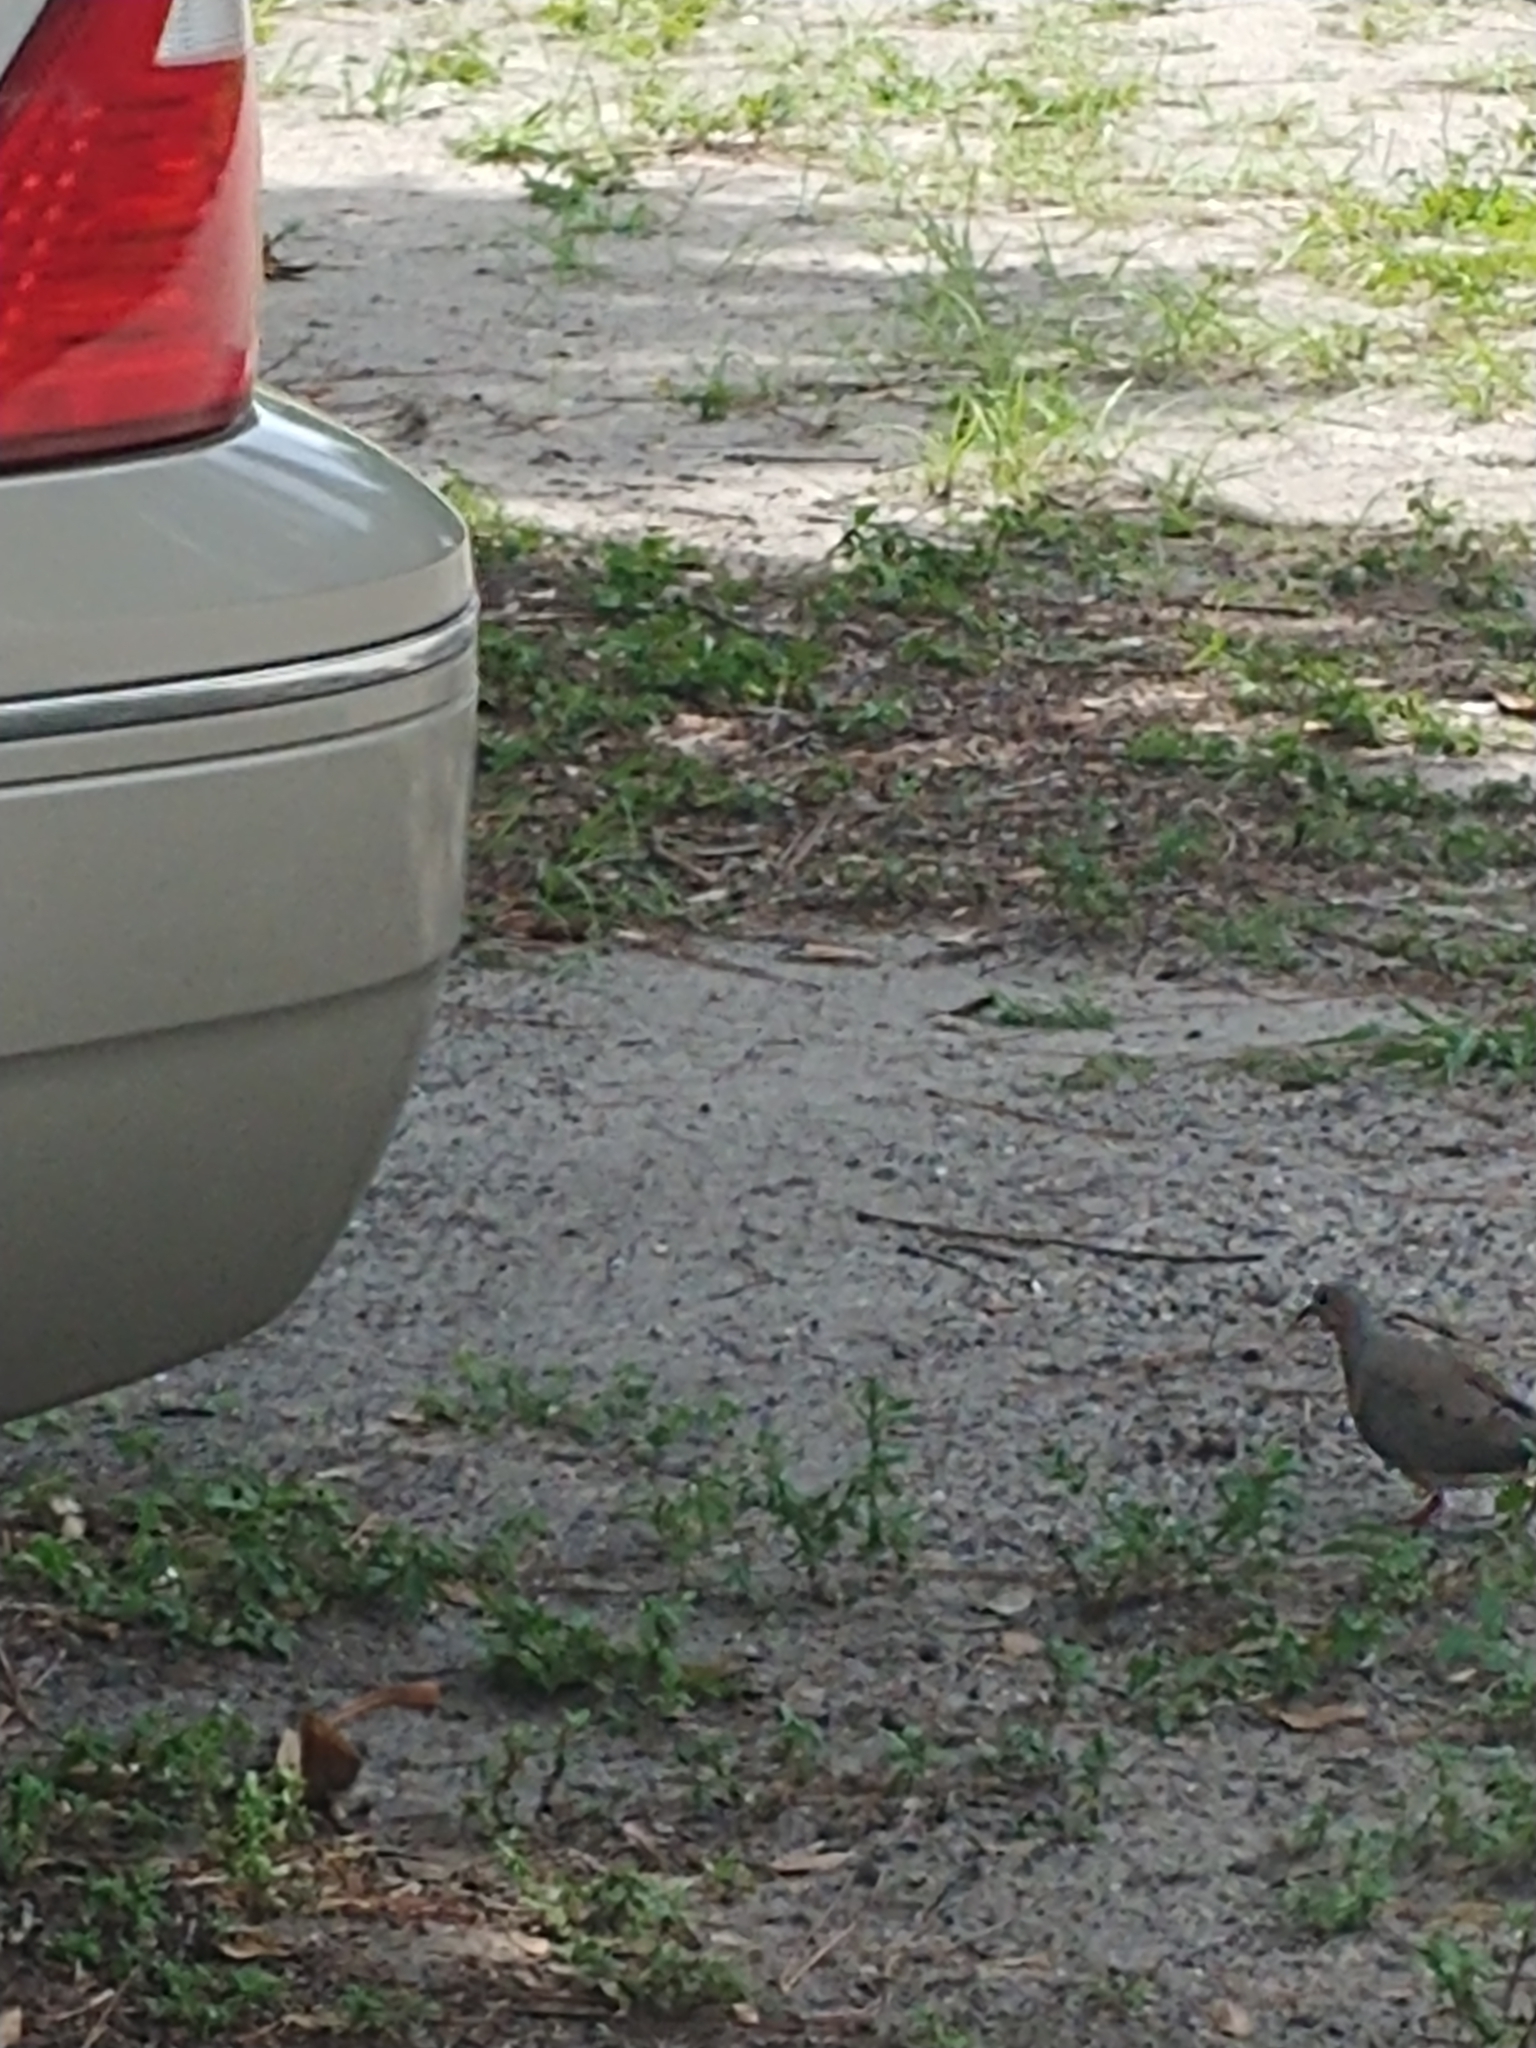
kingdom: Animalia
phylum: Chordata
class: Aves
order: Columbiformes
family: Columbidae
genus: Zenaida
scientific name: Zenaida macroura
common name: Mourning dove
